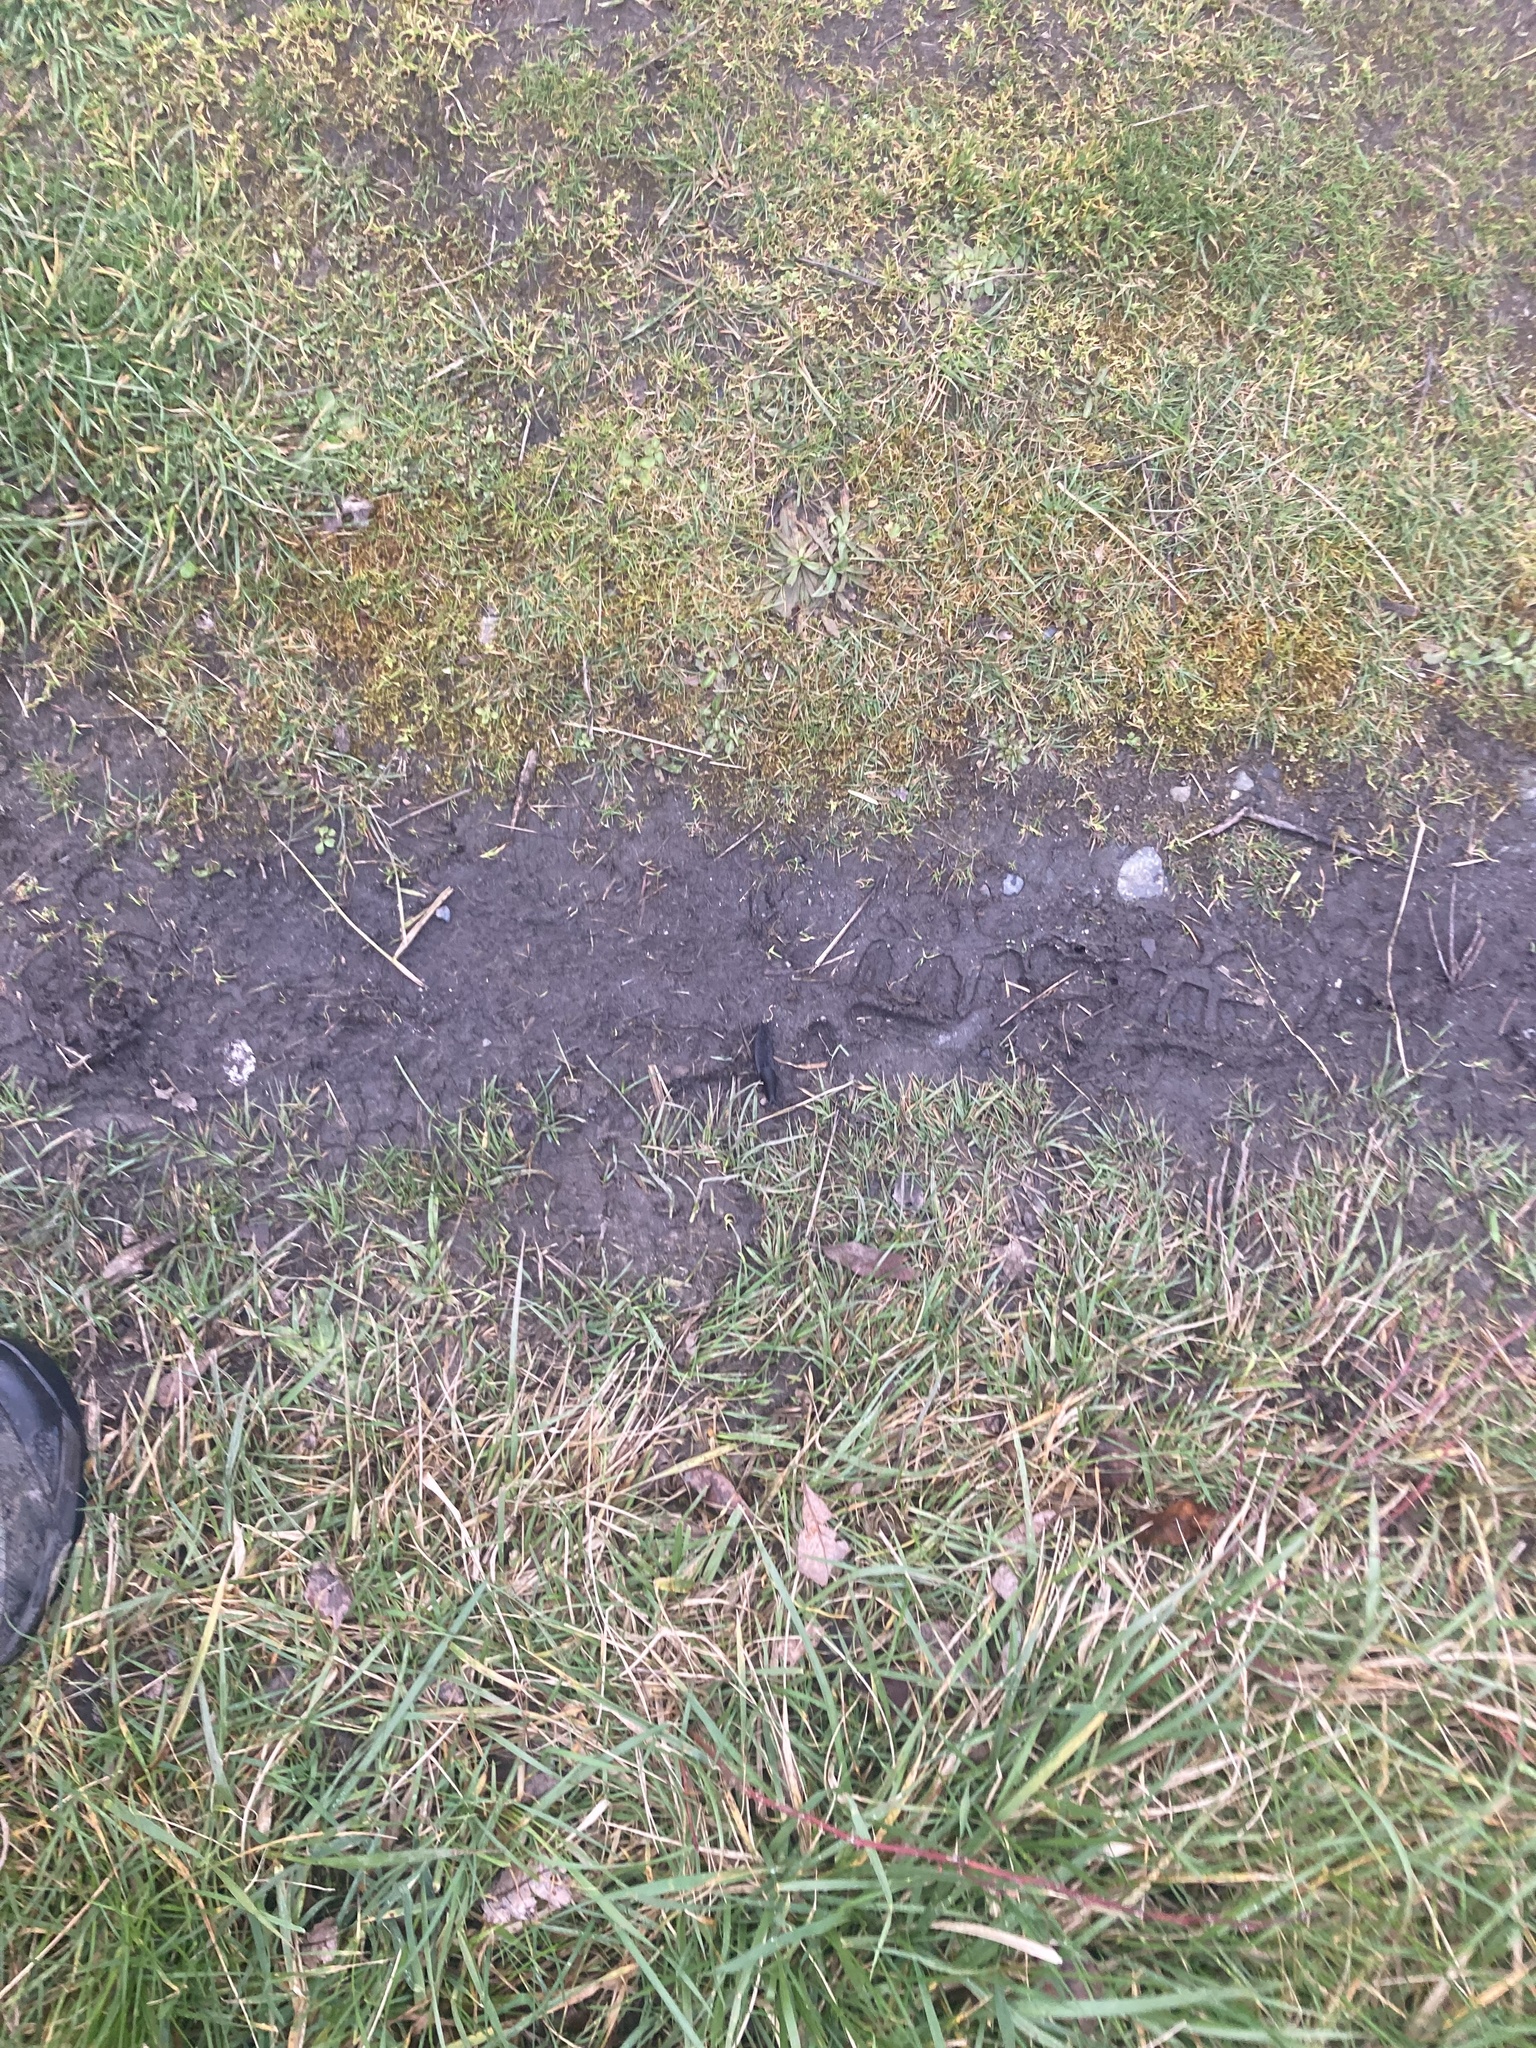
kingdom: Animalia
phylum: Mollusca
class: Gastropoda
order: Stylommatophora
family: Arionidae
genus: Arion
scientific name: Arion
